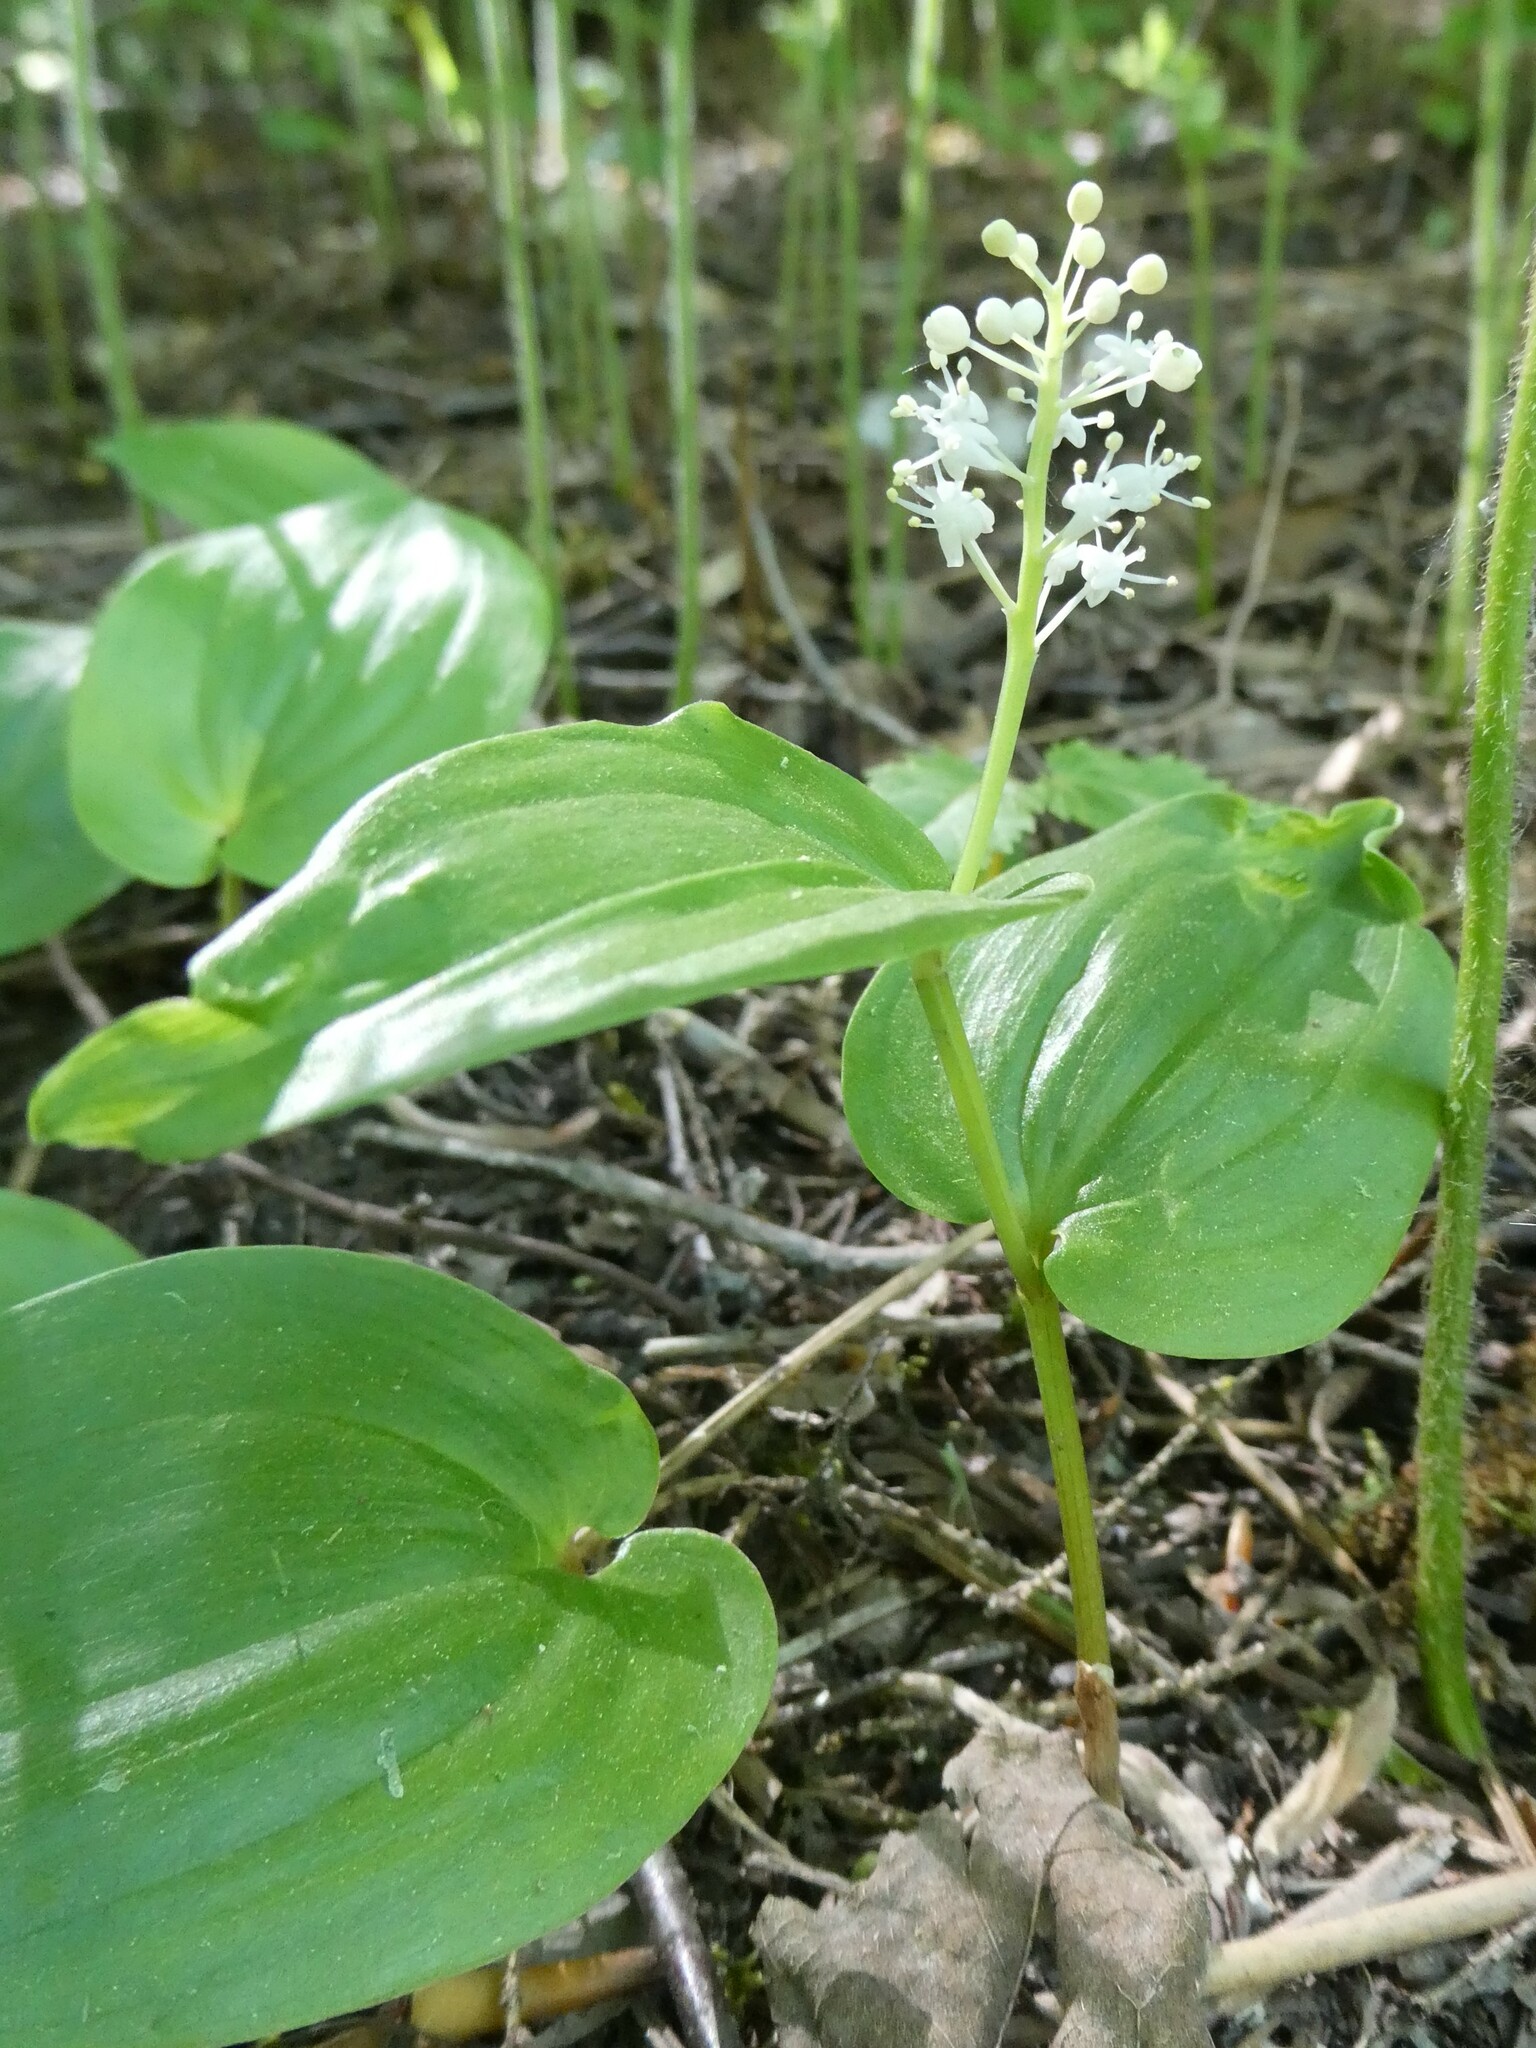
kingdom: Plantae
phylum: Tracheophyta
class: Liliopsida
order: Asparagales
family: Asparagaceae
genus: Maianthemum
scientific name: Maianthemum canadense
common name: False lily-of-the-valley
